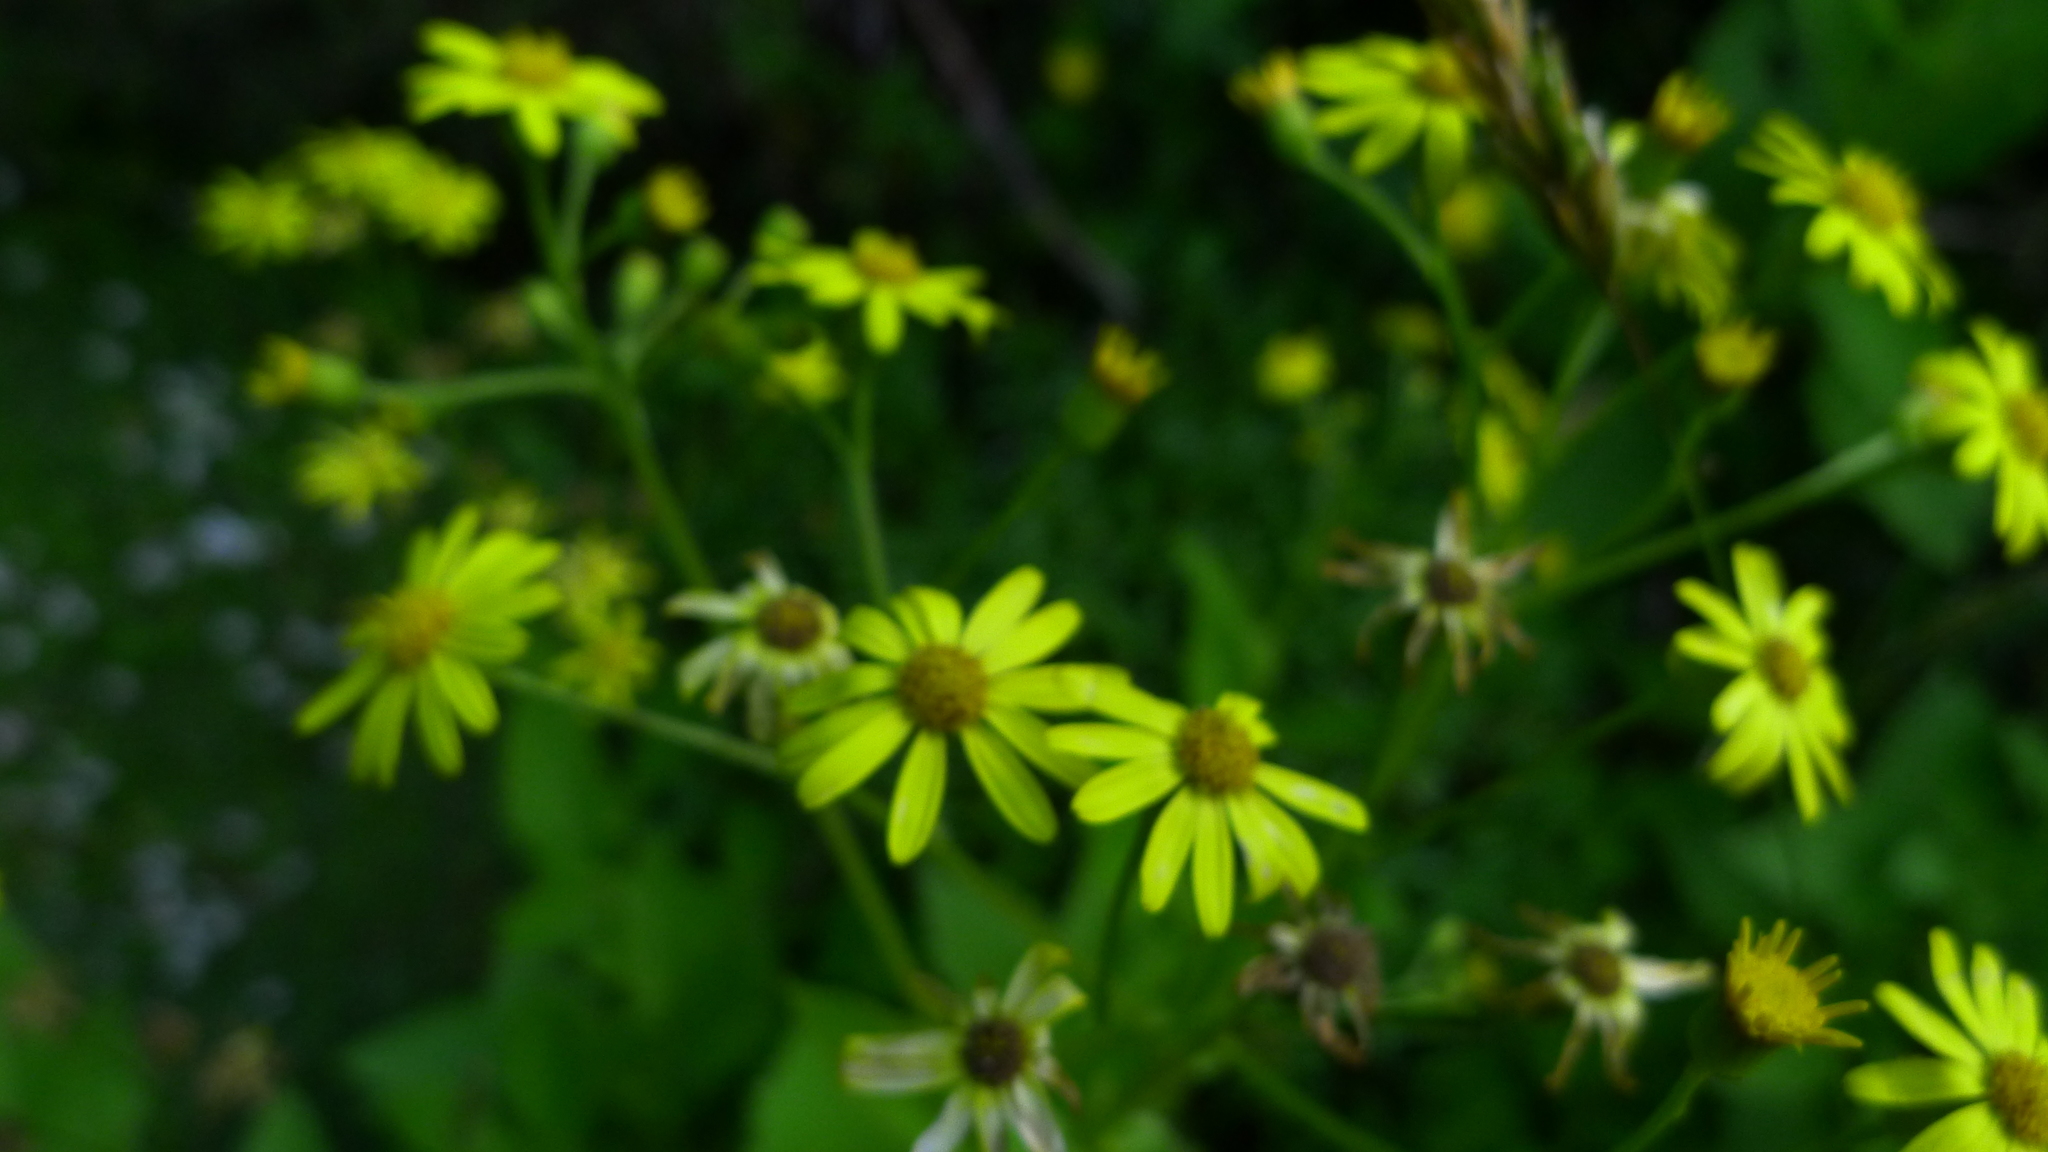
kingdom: Plantae
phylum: Tracheophyta
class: Magnoliopsida
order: Asterales
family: Asteraceae
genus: Senecio
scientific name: Senecio rufiglandulosus
